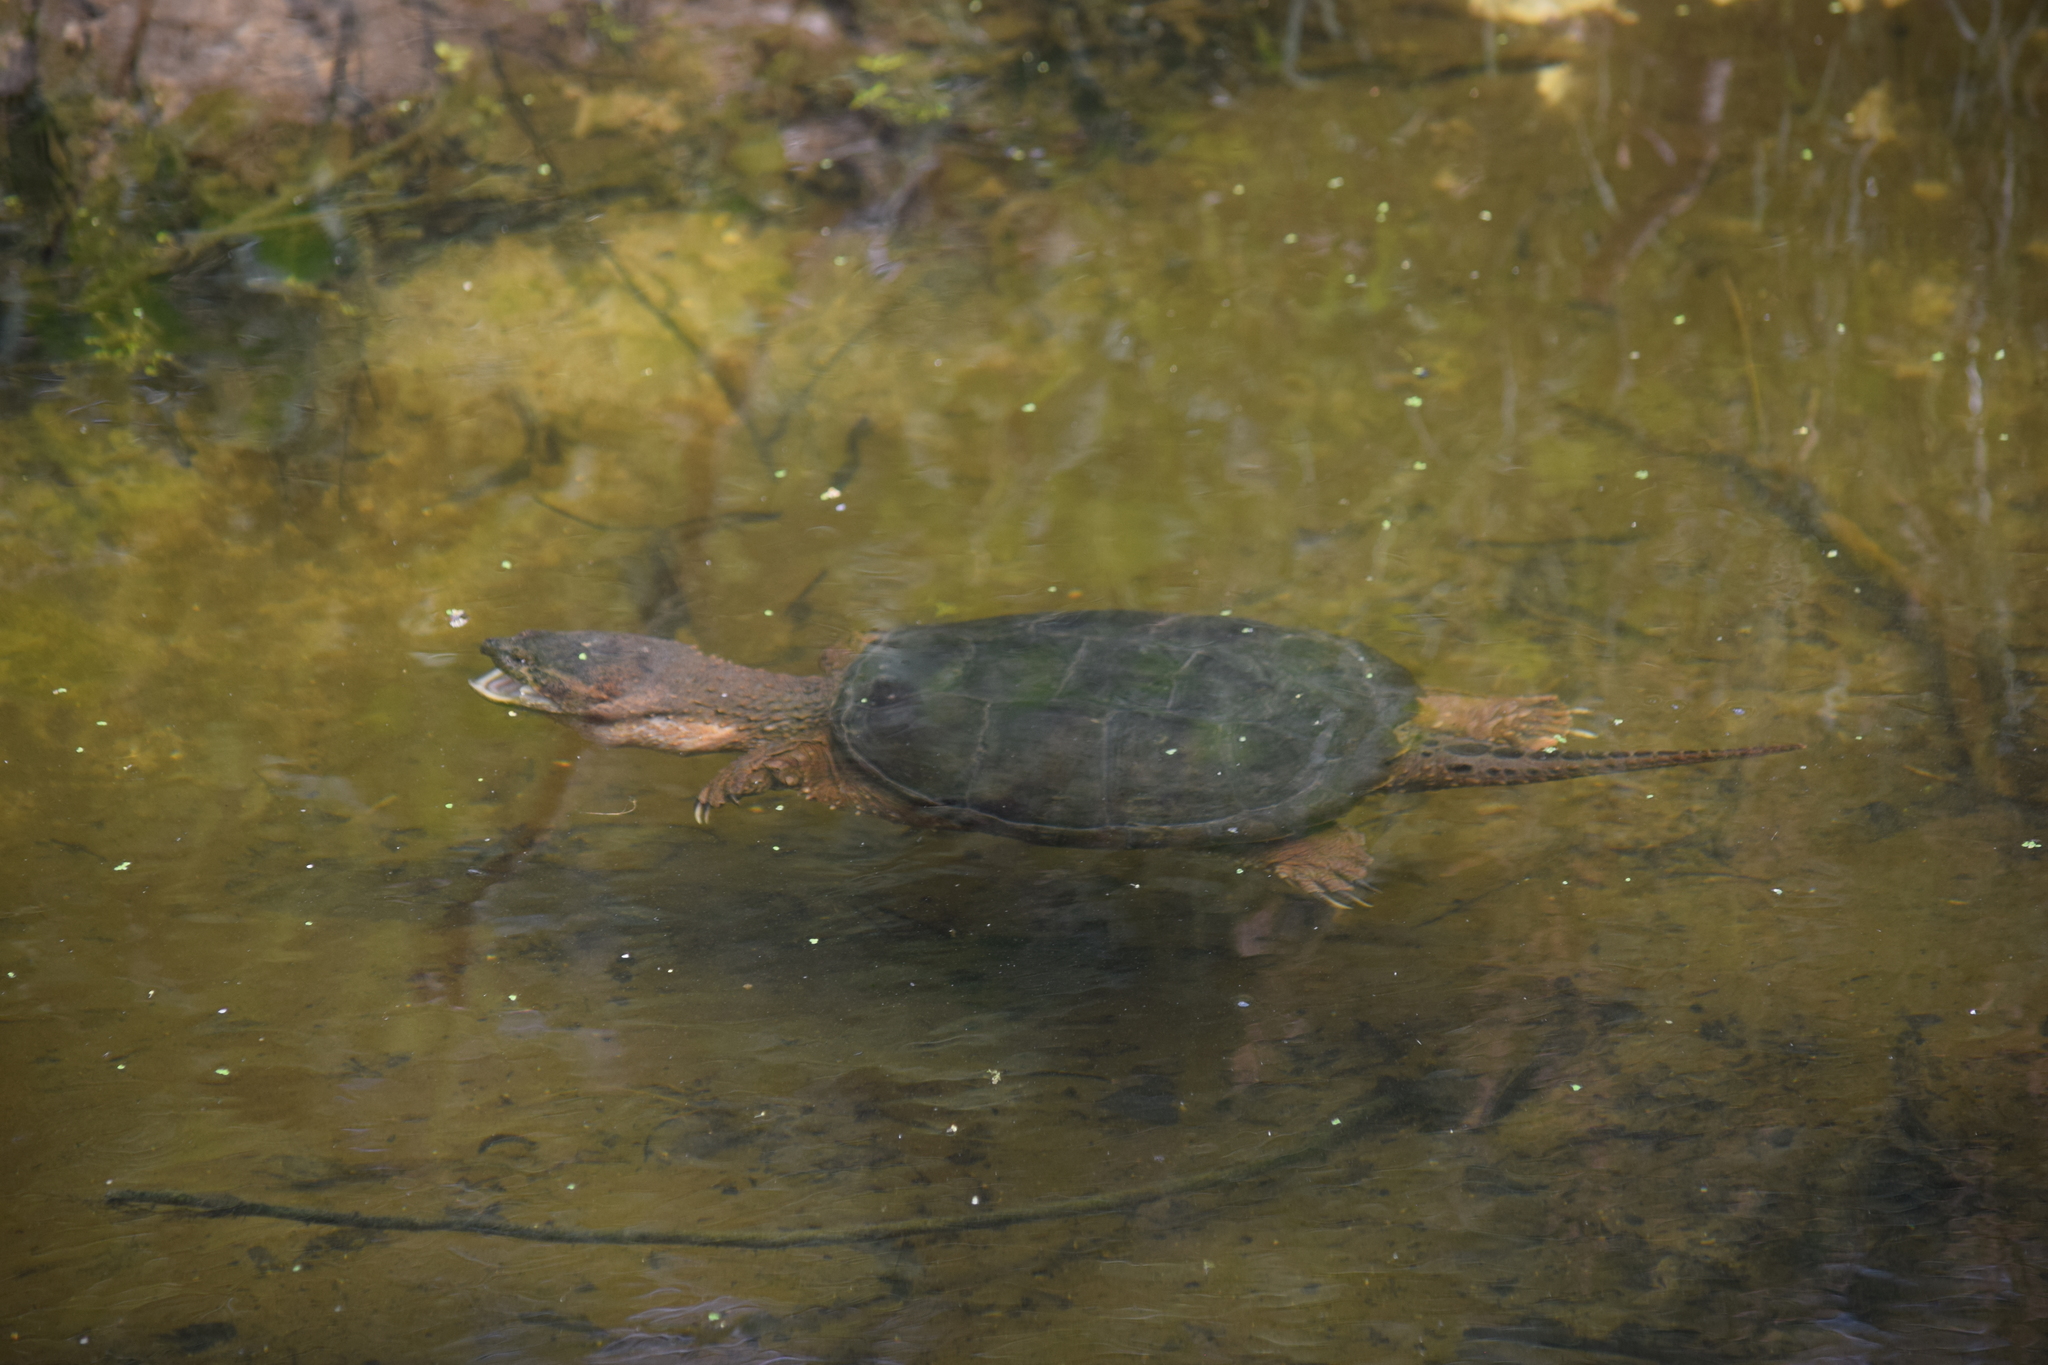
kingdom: Animalia
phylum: Chordata
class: Testudines
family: Chelydridae
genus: Chelydra
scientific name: Chelydra serpentina
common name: Common snapping turtle
